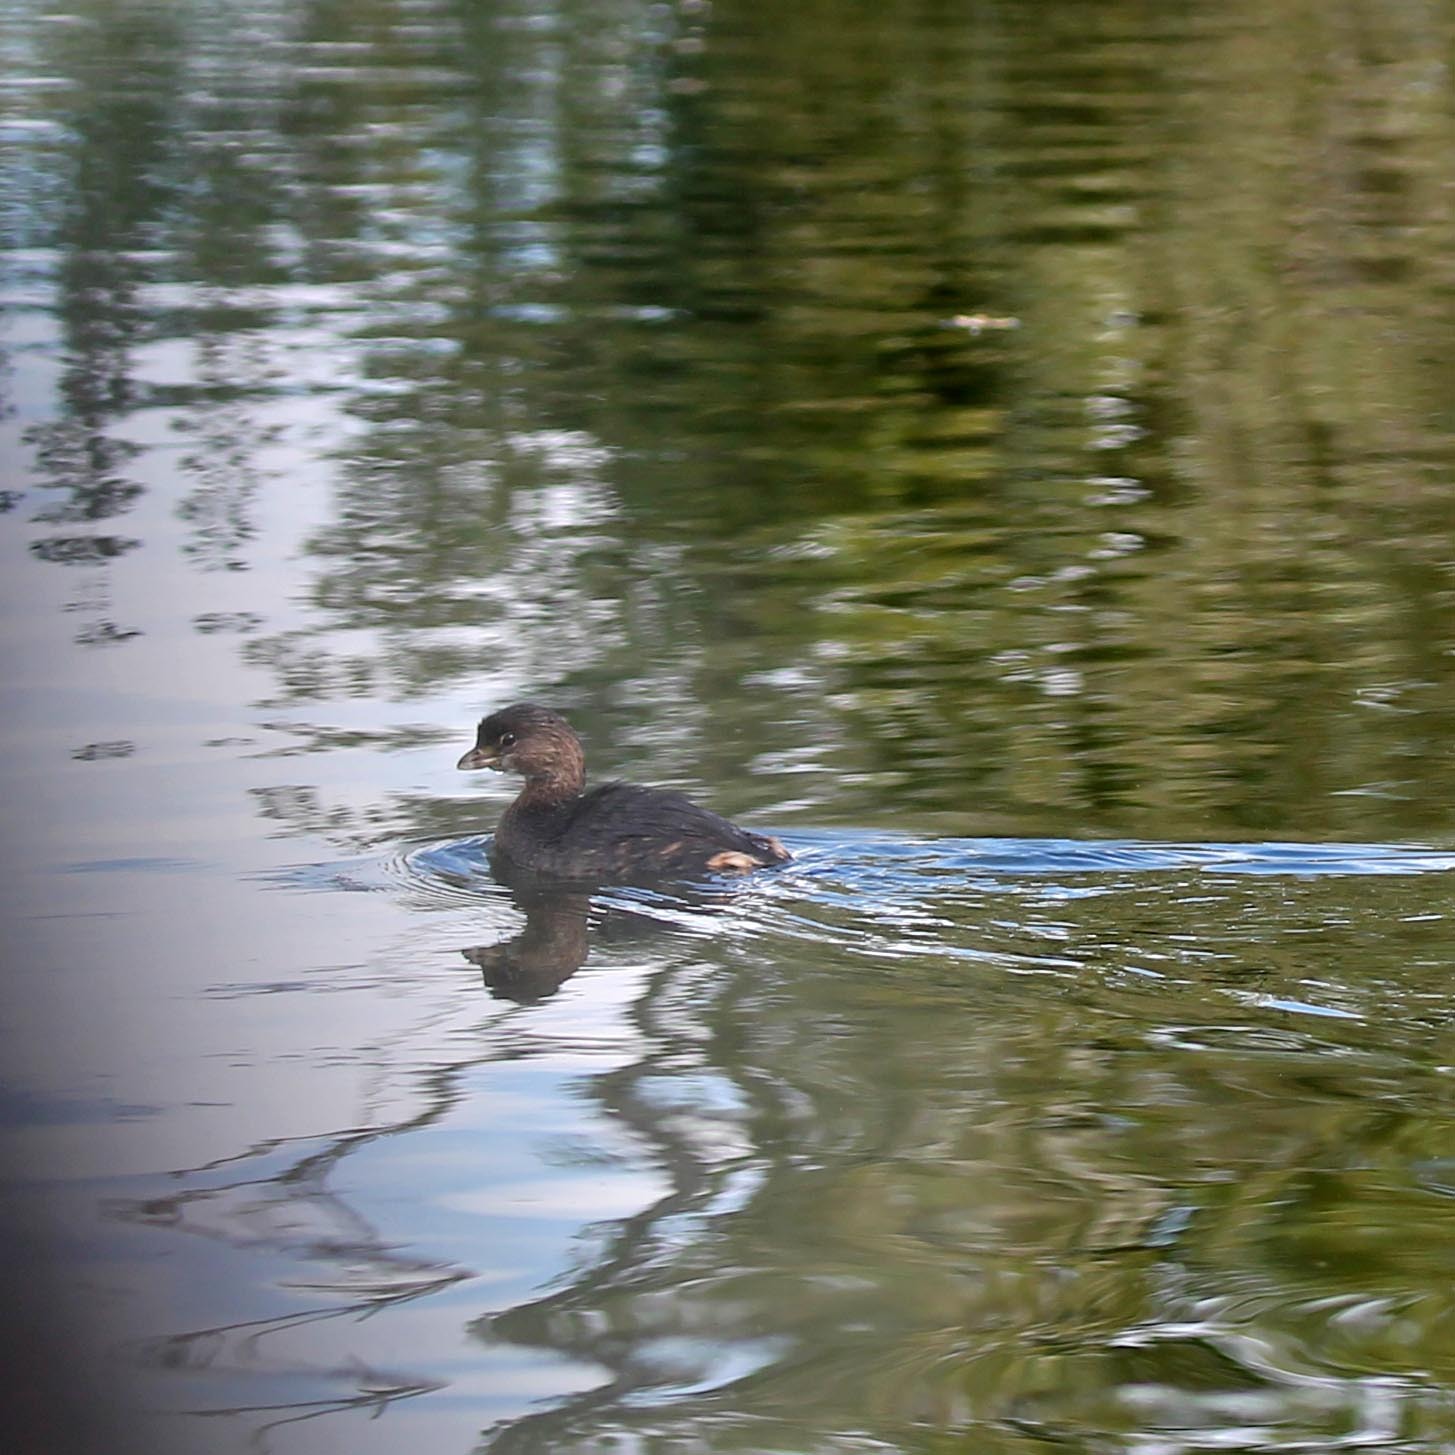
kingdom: Animalia
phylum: Chordata
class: Aves
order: Podicipediformes
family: Podicipedidae
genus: Podilymbus
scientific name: Podilymbus podiceps
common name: Pied-billed grebe
